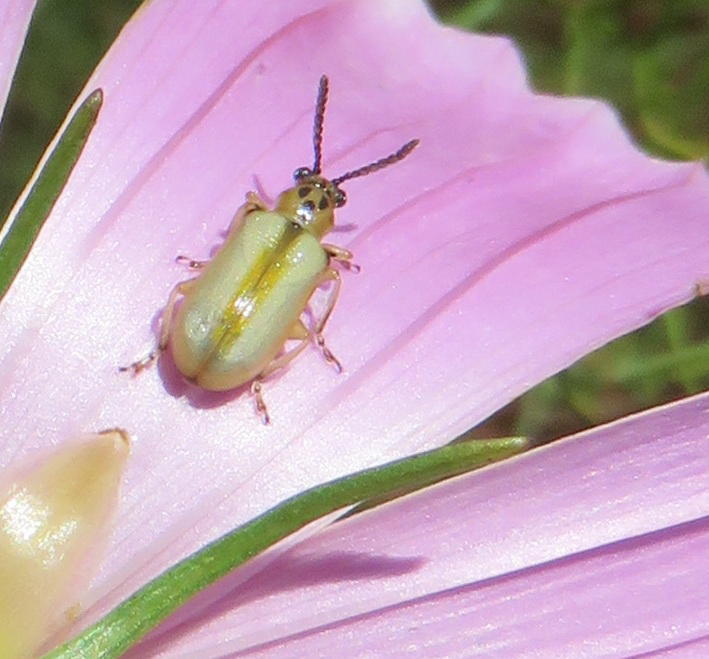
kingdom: Animalia
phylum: Arthropoda
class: Insecta
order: Coleoptera
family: Chrysomelidae
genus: Elisabethana
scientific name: Elisabethana
